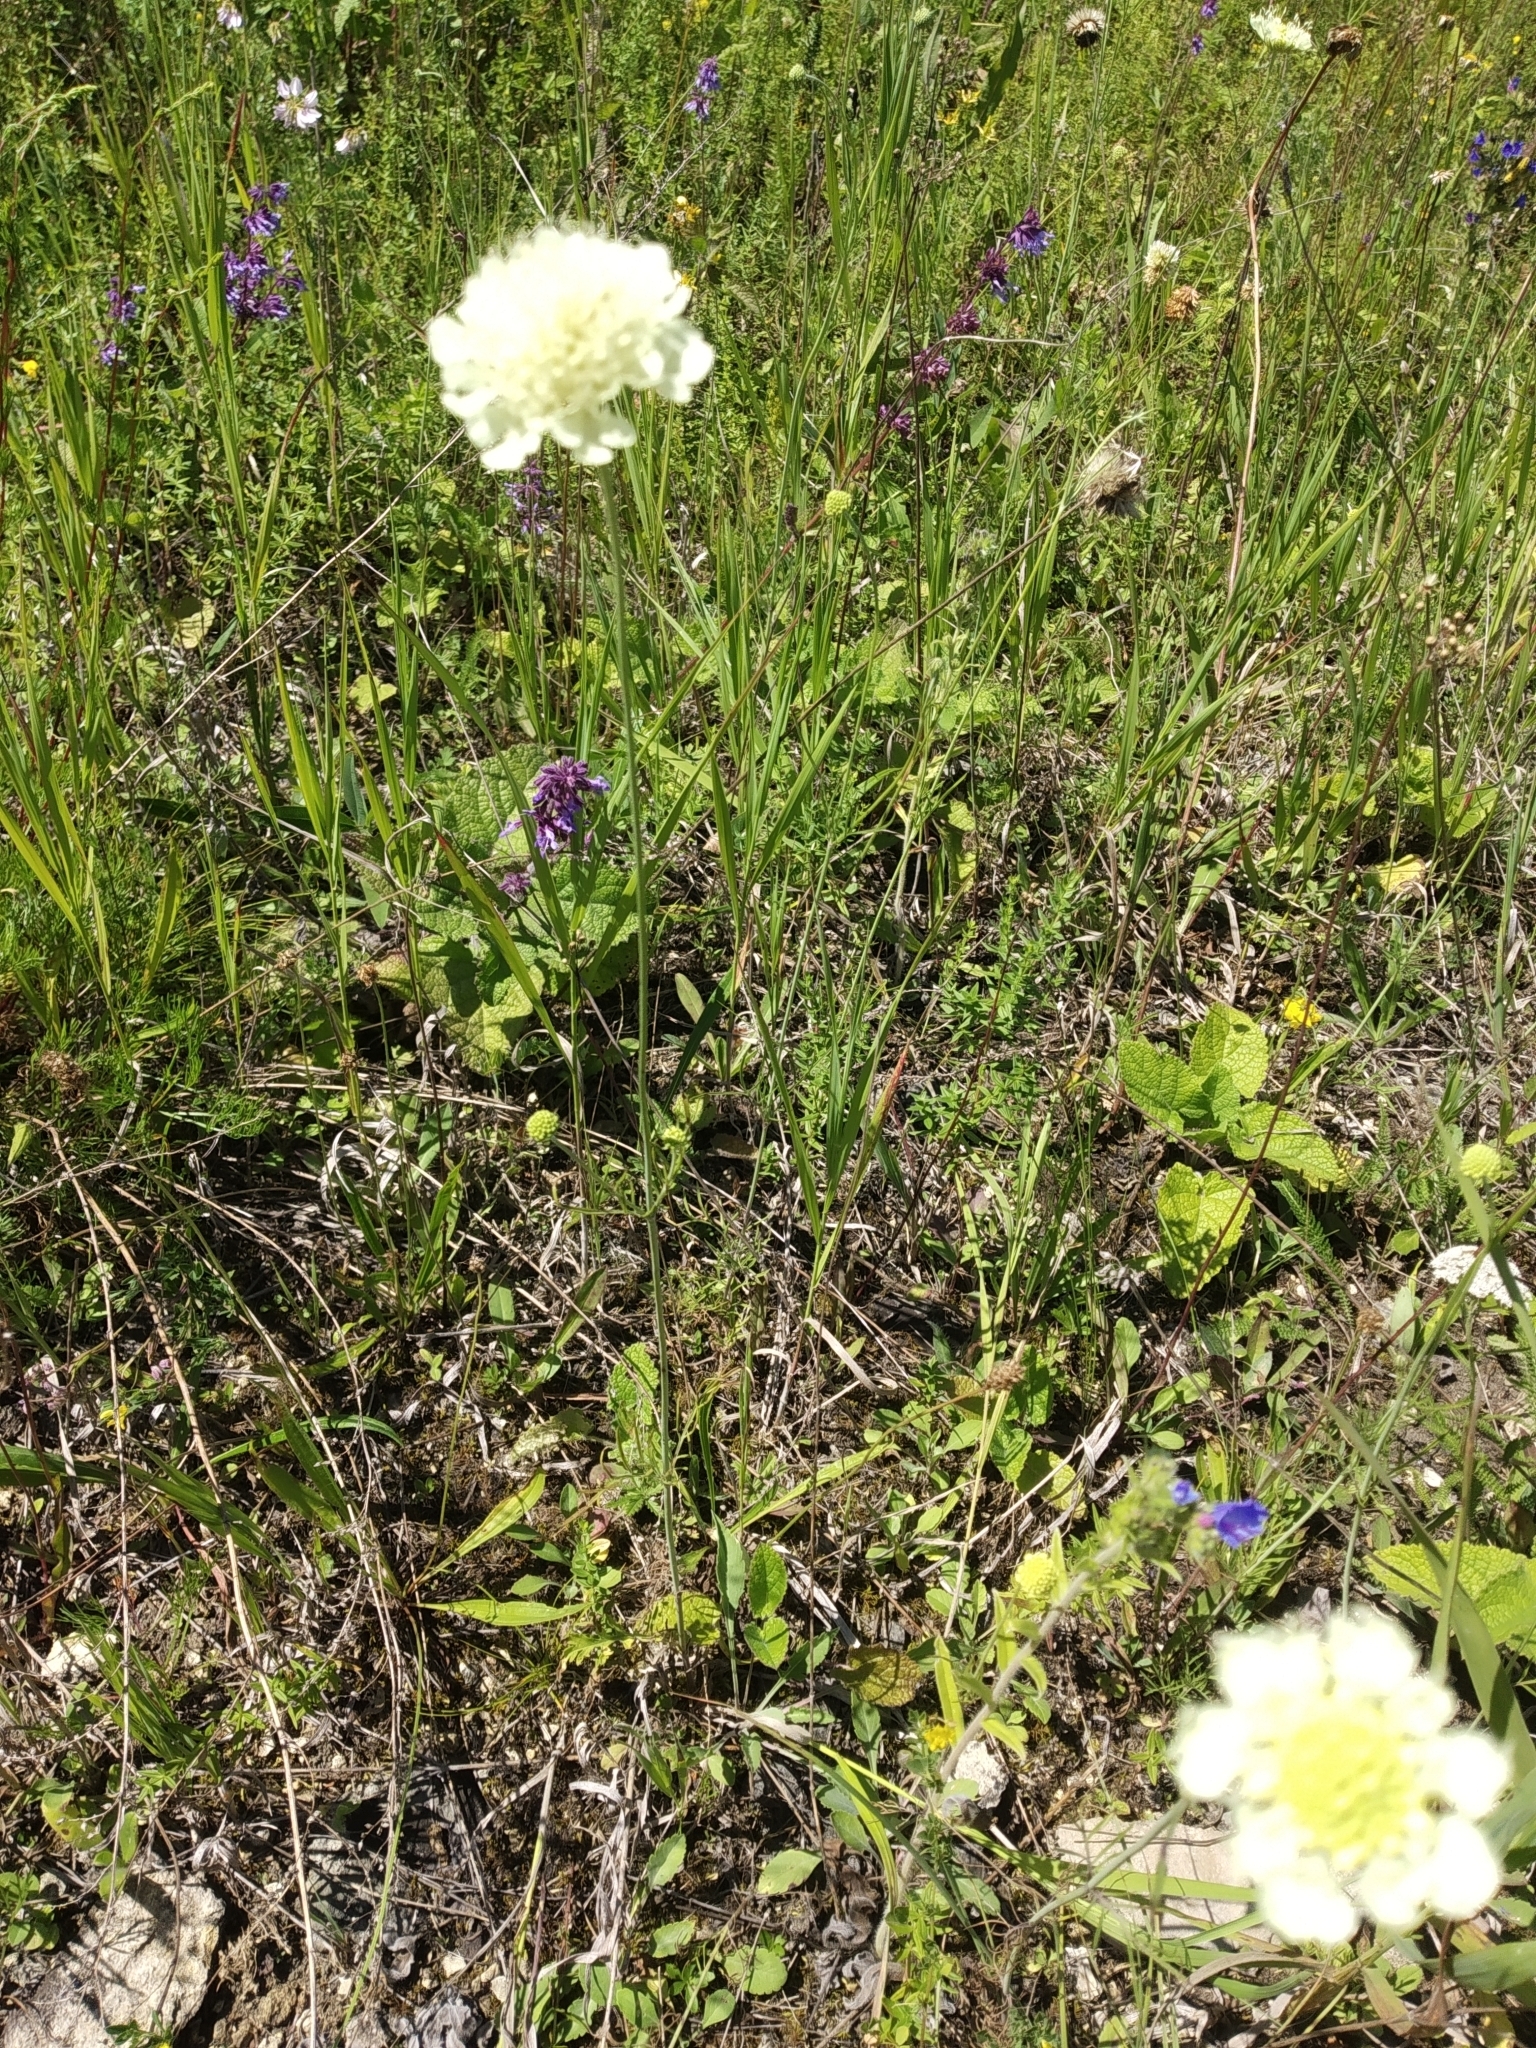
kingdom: Plantae
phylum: Tracheophyta
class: Magnoliopsida
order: Dipsacales
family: Caprifoliaceae
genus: Scabiosa
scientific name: Scabiosa ochroleuca
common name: Cream pincushions
